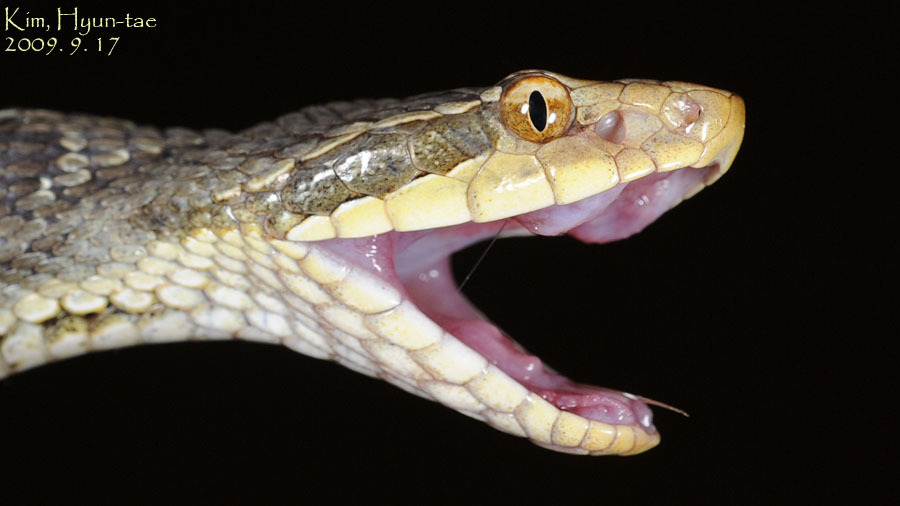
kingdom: Animalia
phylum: Chordata
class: Squamata
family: Viperidae
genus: Gloydius
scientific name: Gloydius ussuriensis
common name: Ussuri mamushi
